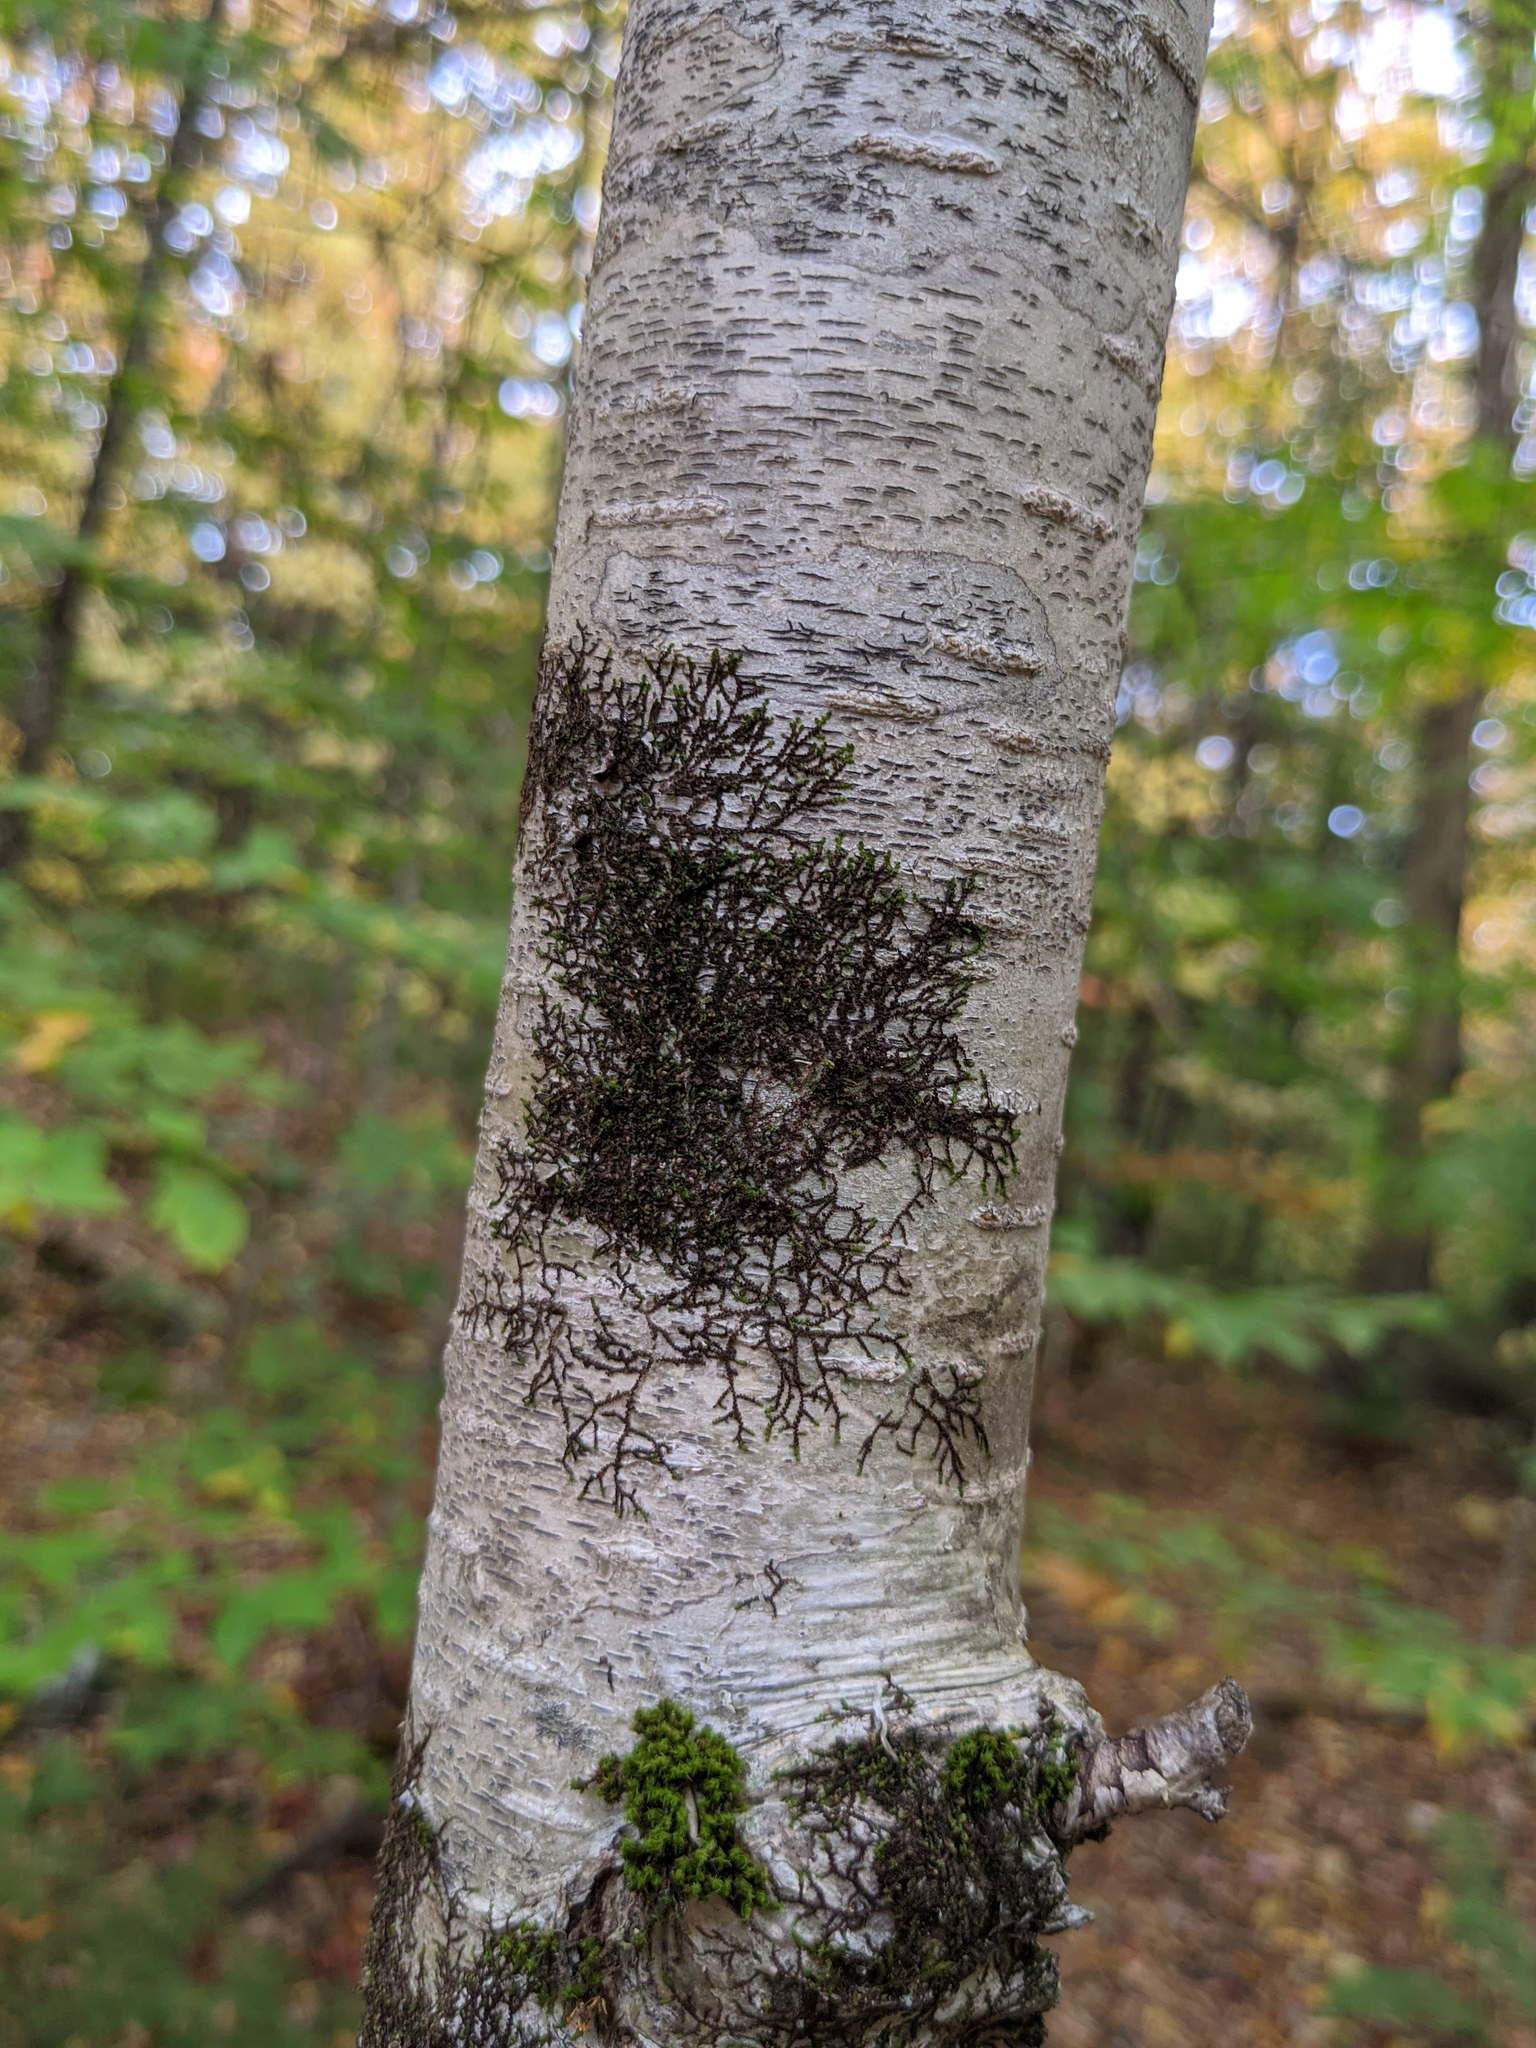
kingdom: Plantae
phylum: Marchantiophyta
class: Jungermanniopsida
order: Porellales
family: Frullaniaceae
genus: Frullania
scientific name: Frullania eboracensis
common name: New york scalewort
